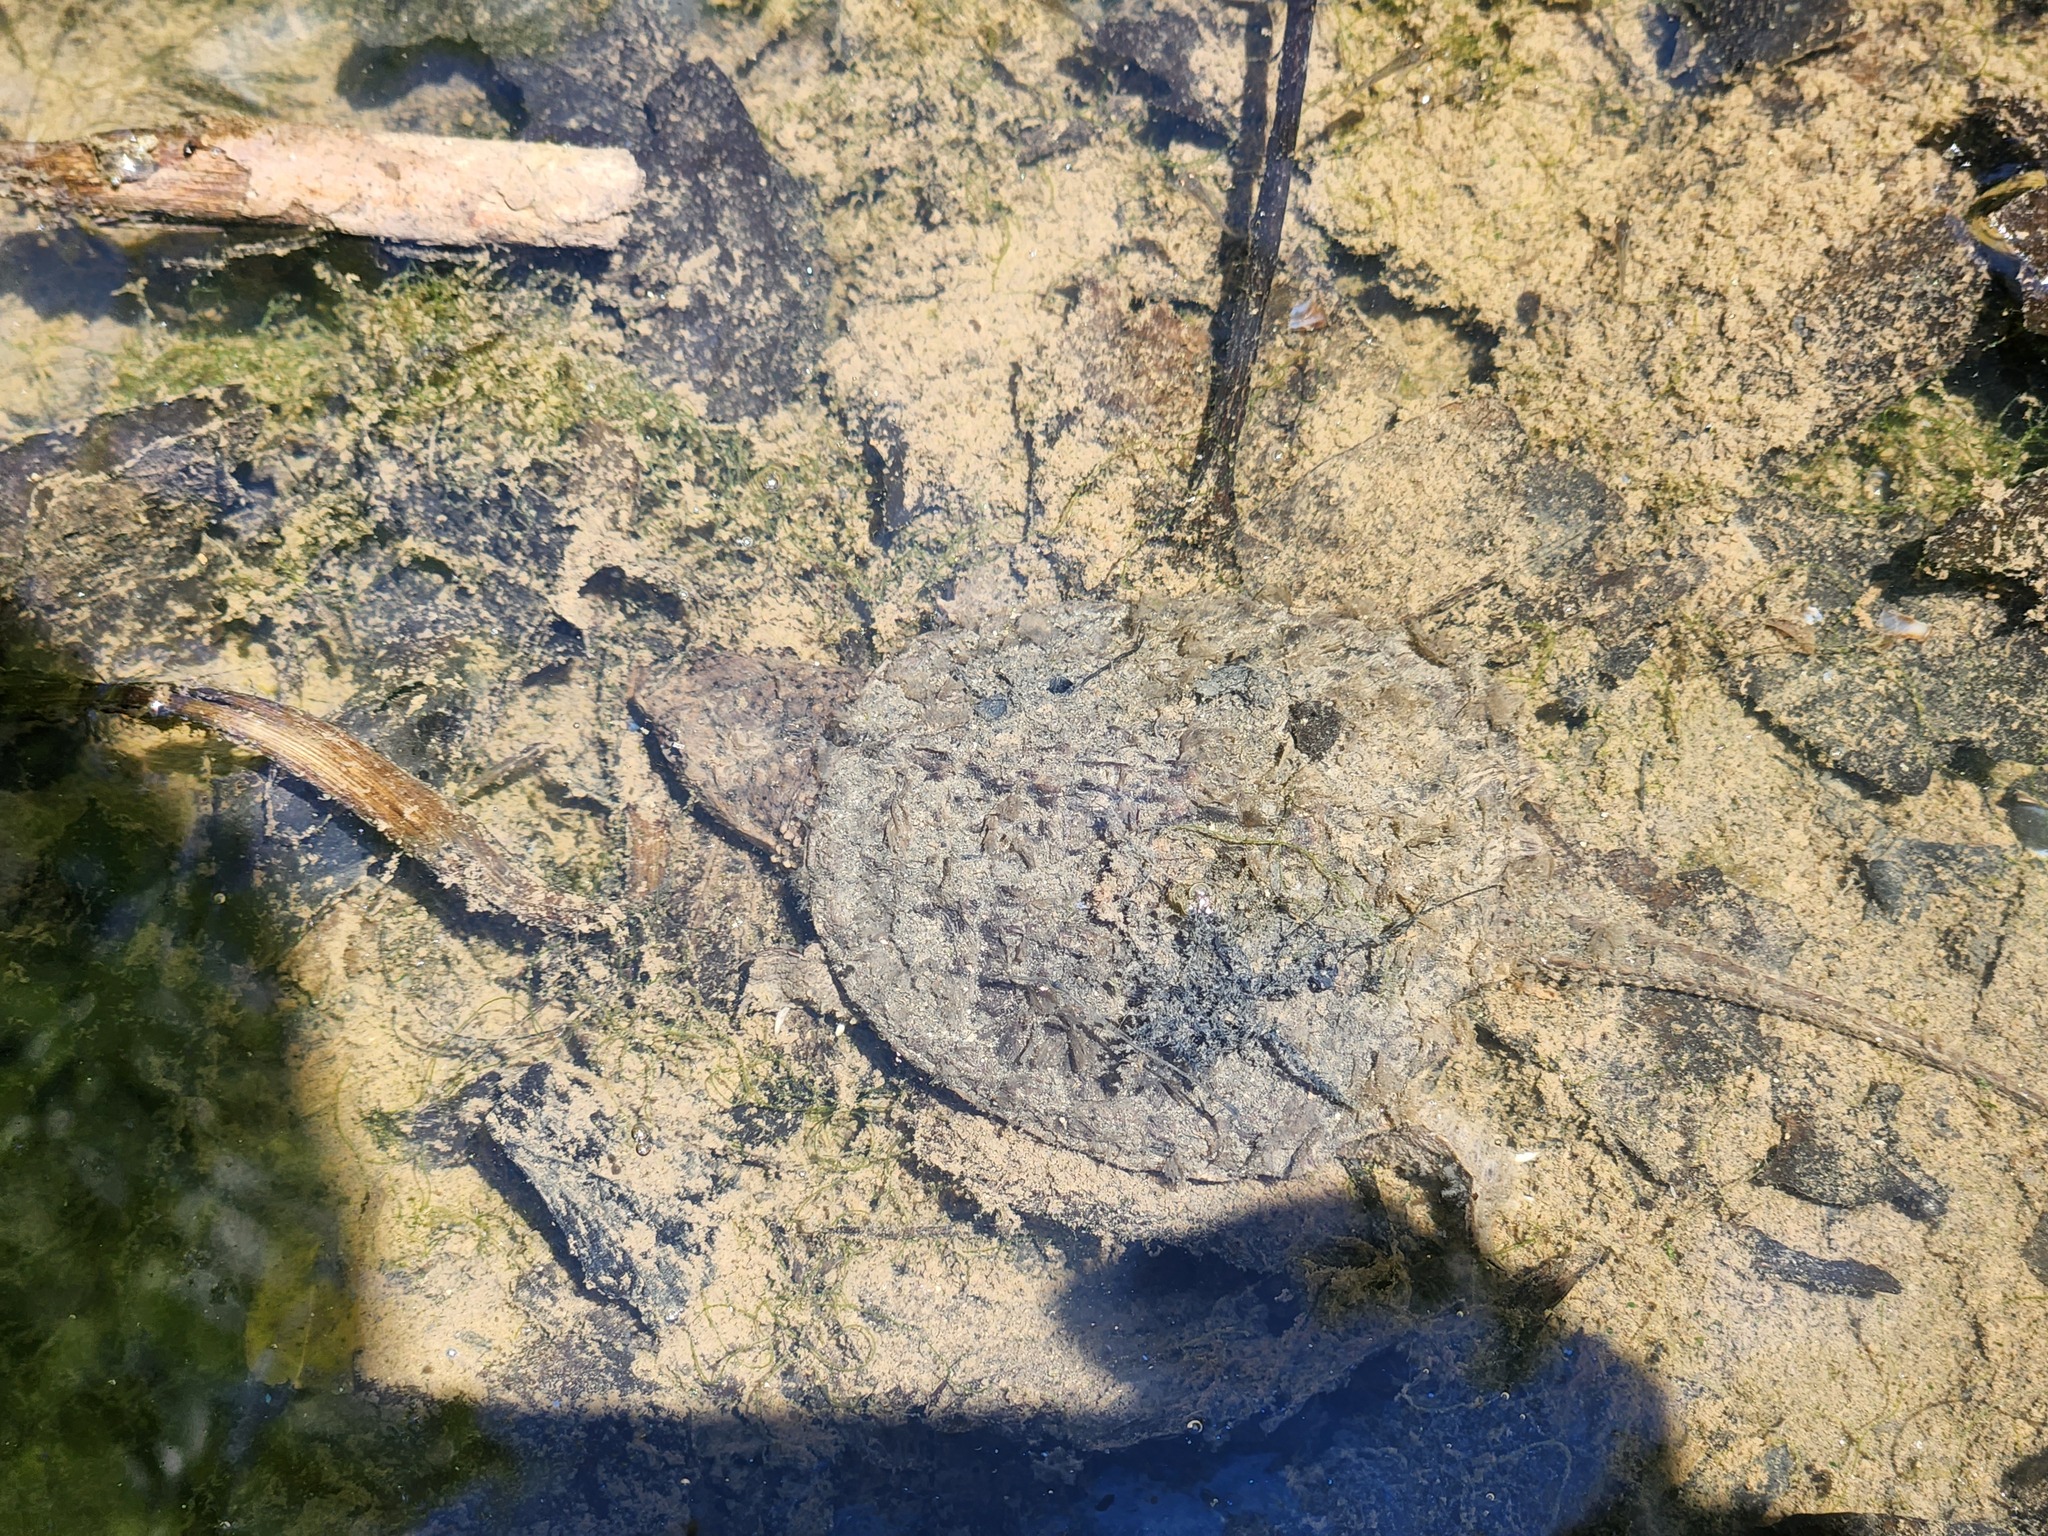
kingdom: Animalia
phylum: Chordata
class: Testudines
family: Chelydridae
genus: Chelydra
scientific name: Chelydra serpentina
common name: Common snapping turtle
